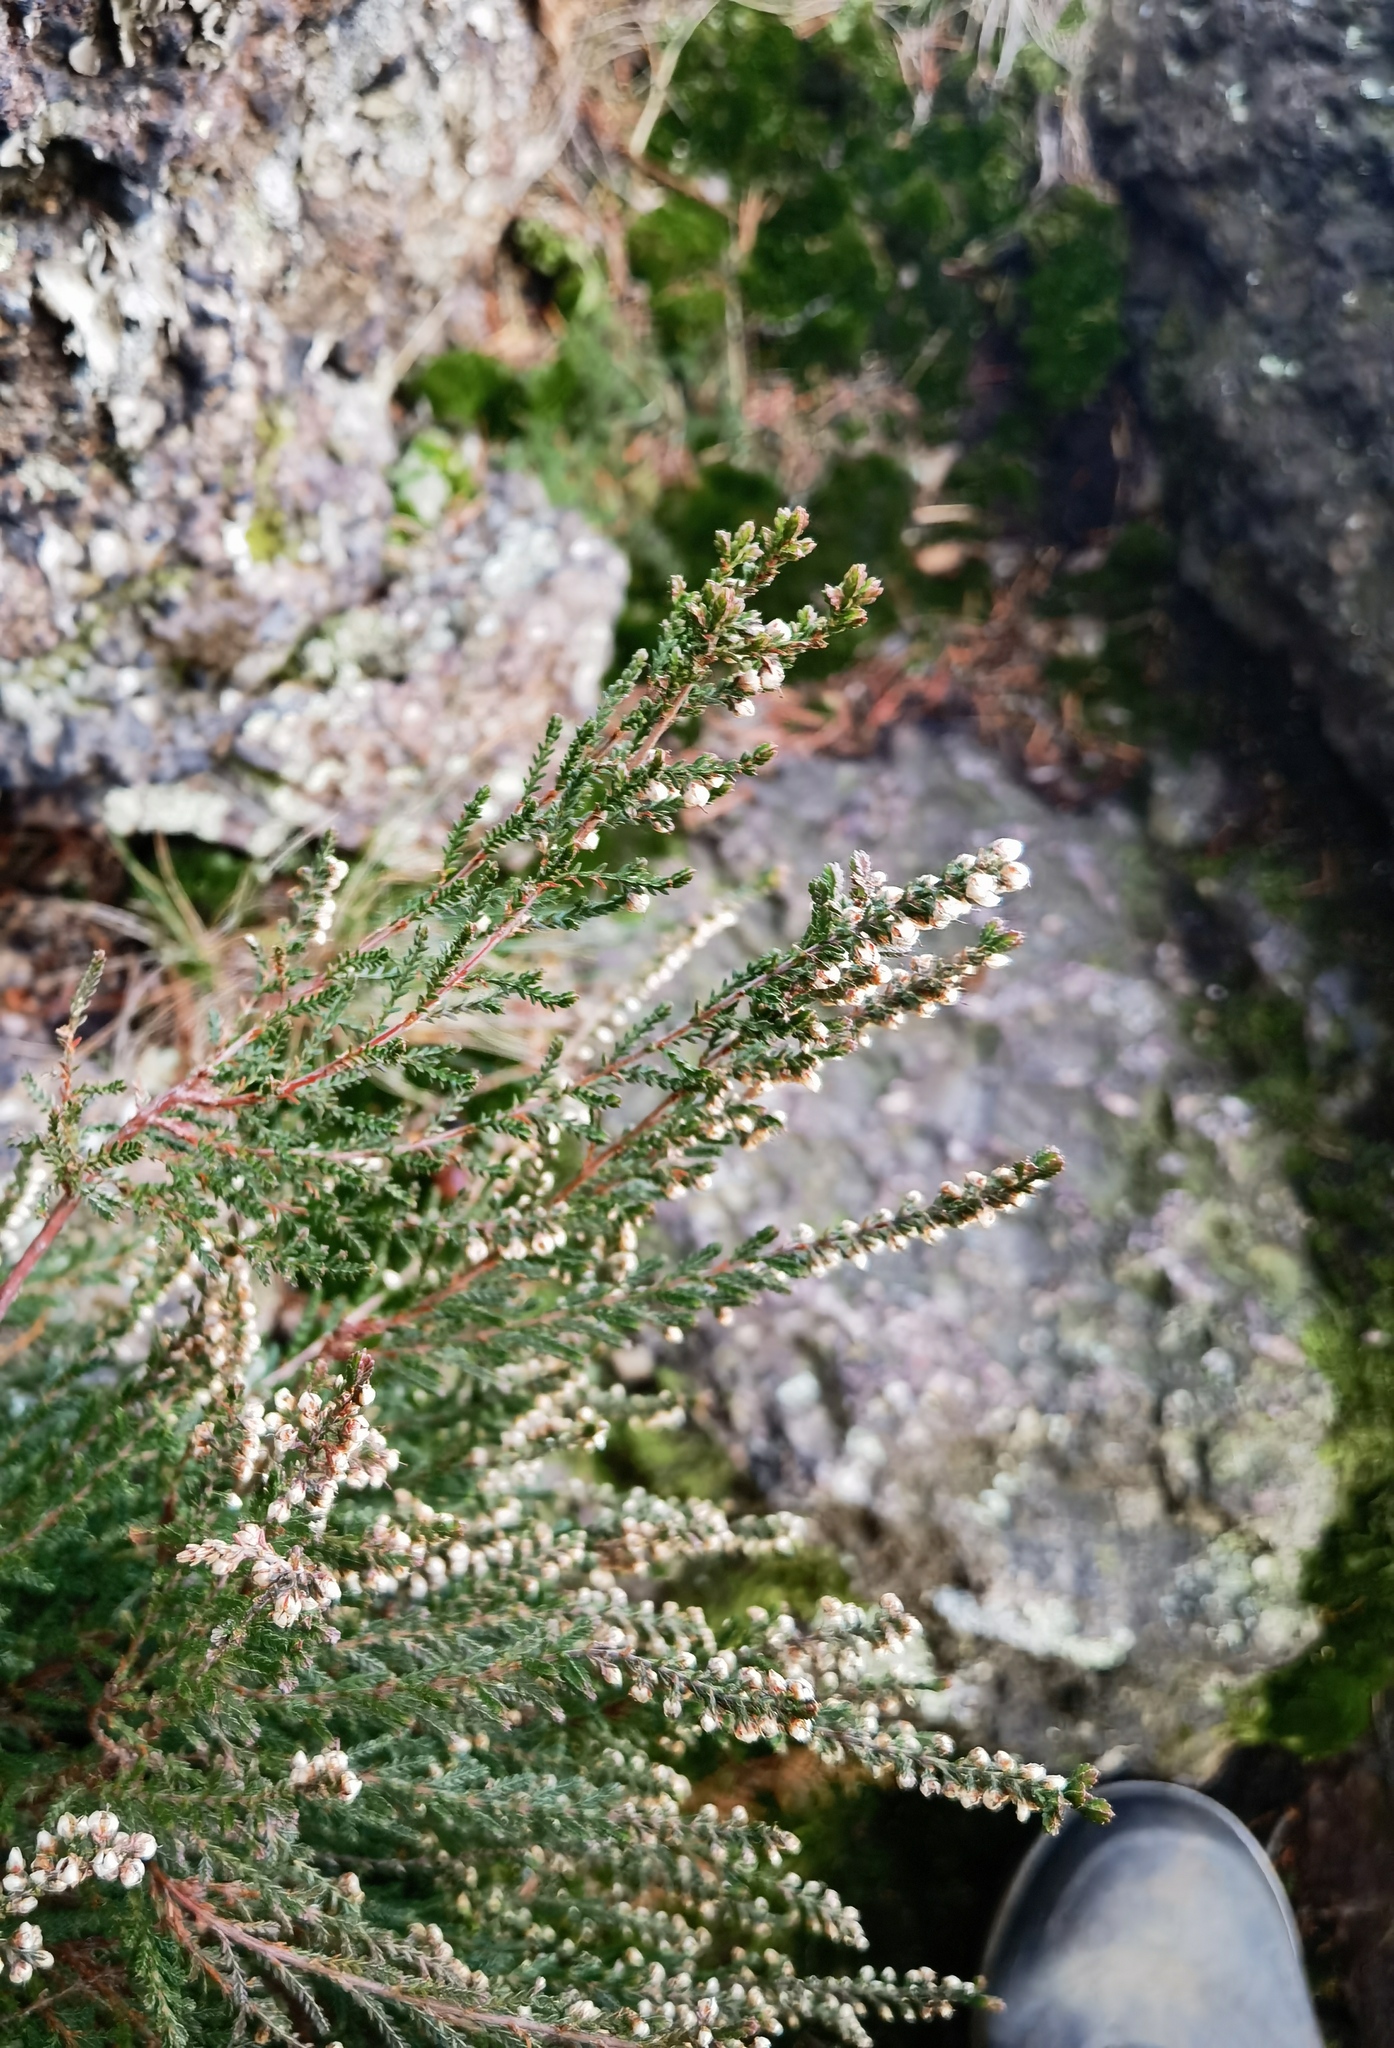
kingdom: Plantae
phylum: Tracheophyta
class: Magnoliopsida
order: Ericales
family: Ericaceae
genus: Calluna
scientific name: Calluna vulgaris
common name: Heather
